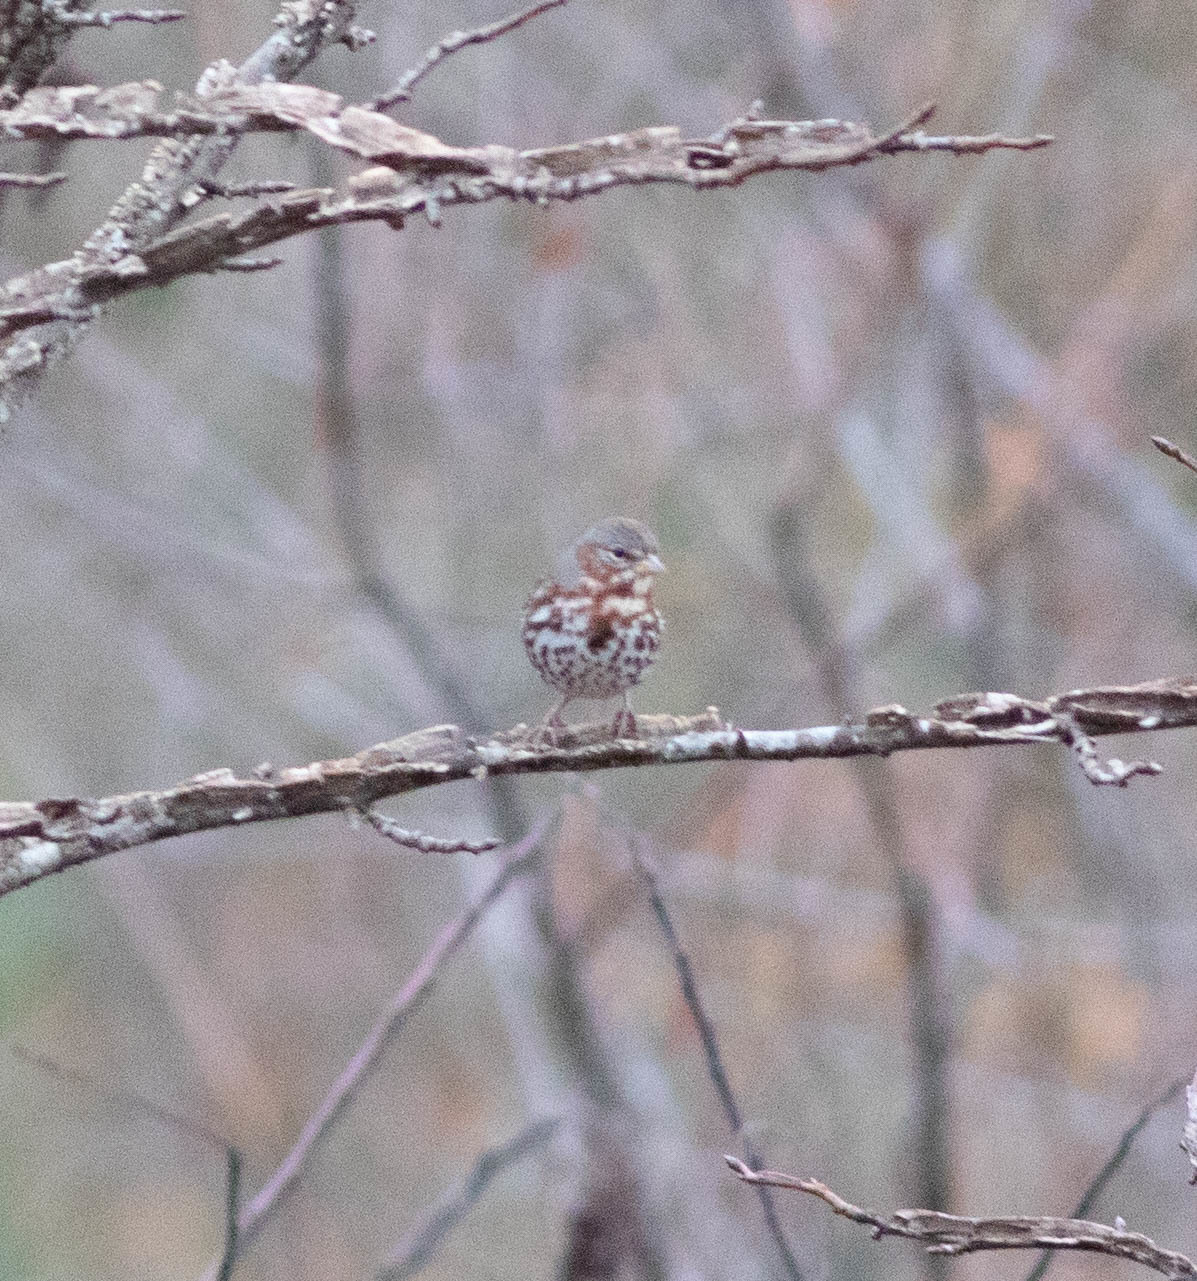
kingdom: Animalia
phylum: Chordata
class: Aves
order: Passeriformes
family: Passerellidae
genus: Passerella
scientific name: Passerella iliaca
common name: Fox sparrow
